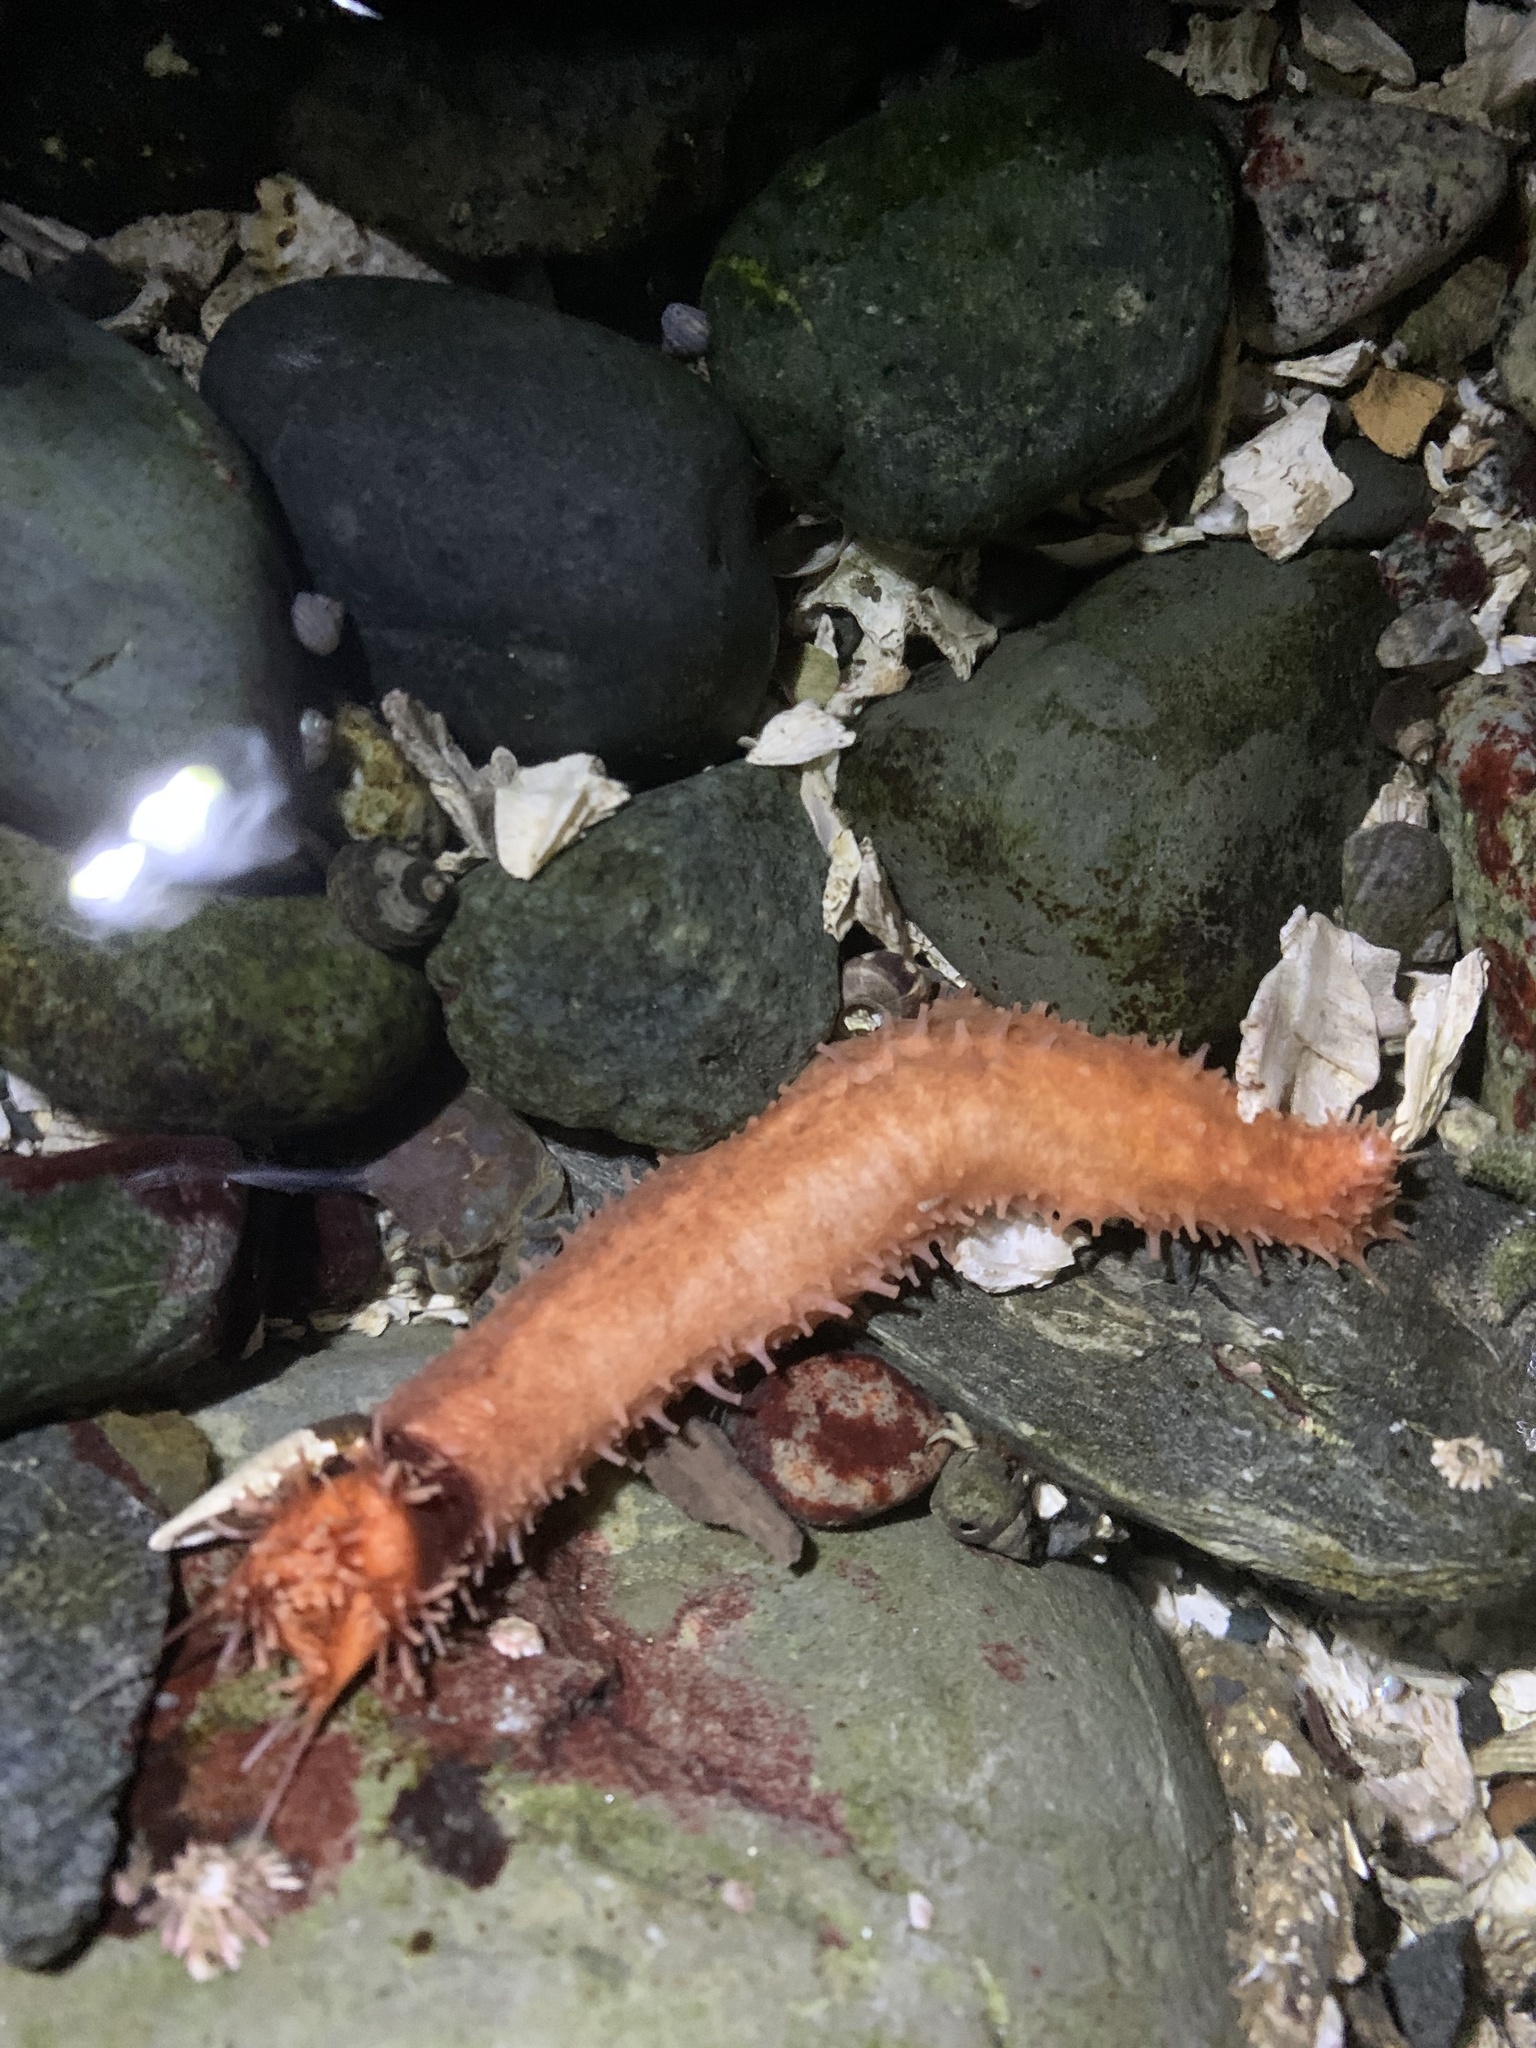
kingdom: Animalia
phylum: Echinodermata
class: Holothuroidea
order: Dendrochirotida
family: Cucumariidae
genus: Cucumaria
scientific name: Cucumaria miniata
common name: Orange sea cucumber
